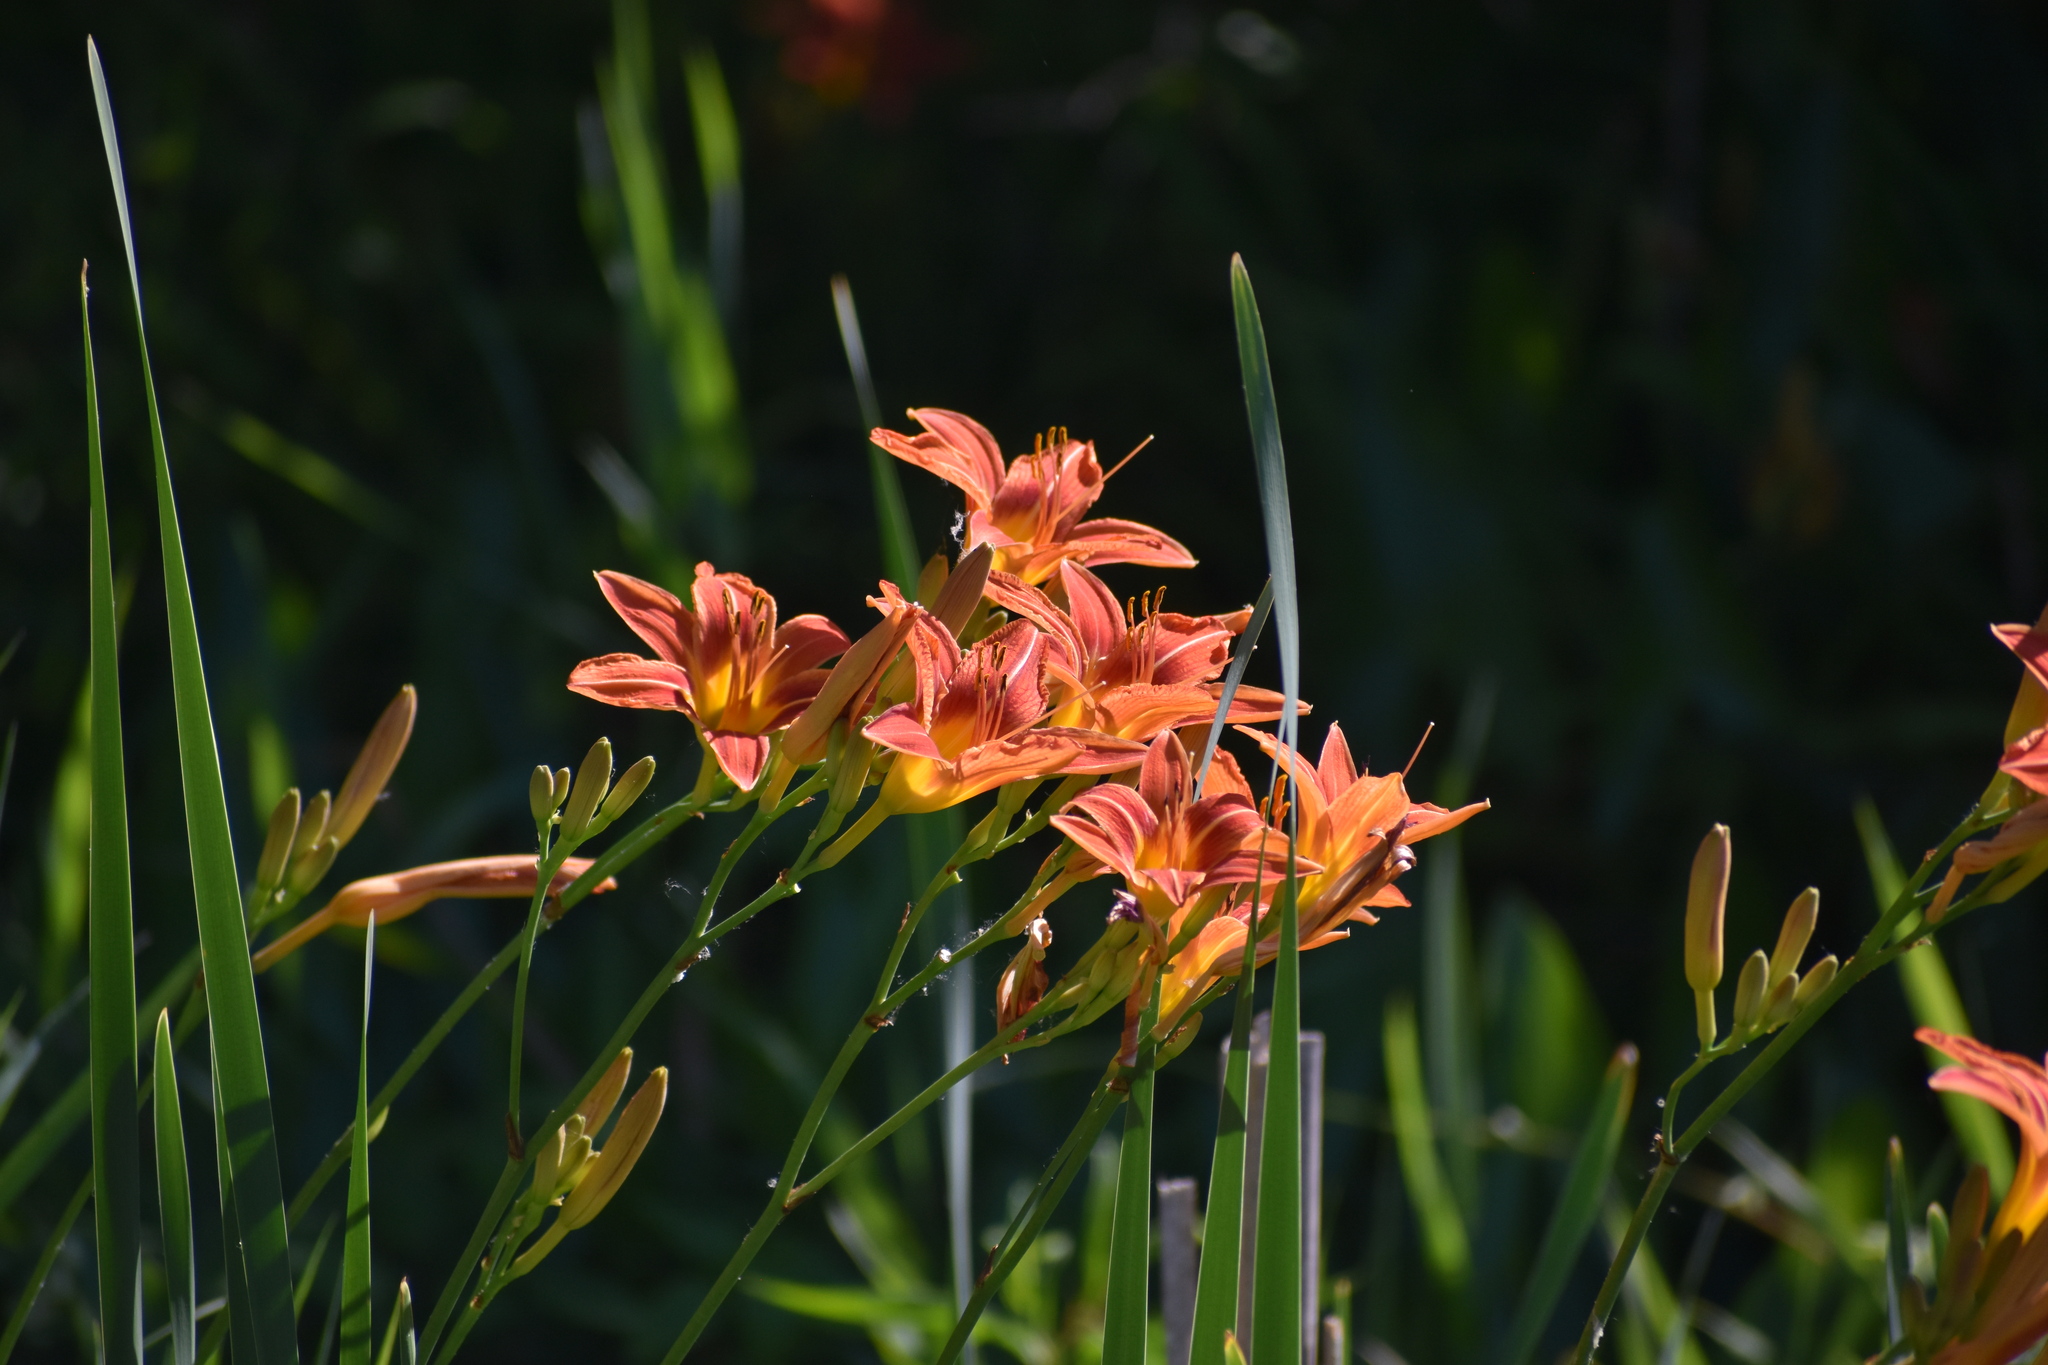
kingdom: Plantae
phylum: Tracheophyta
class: Liliopsida
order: Asparagales
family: Asphodelaceae
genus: Hemerocallis
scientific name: Hemerocallis fulva
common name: Orange day-lily
